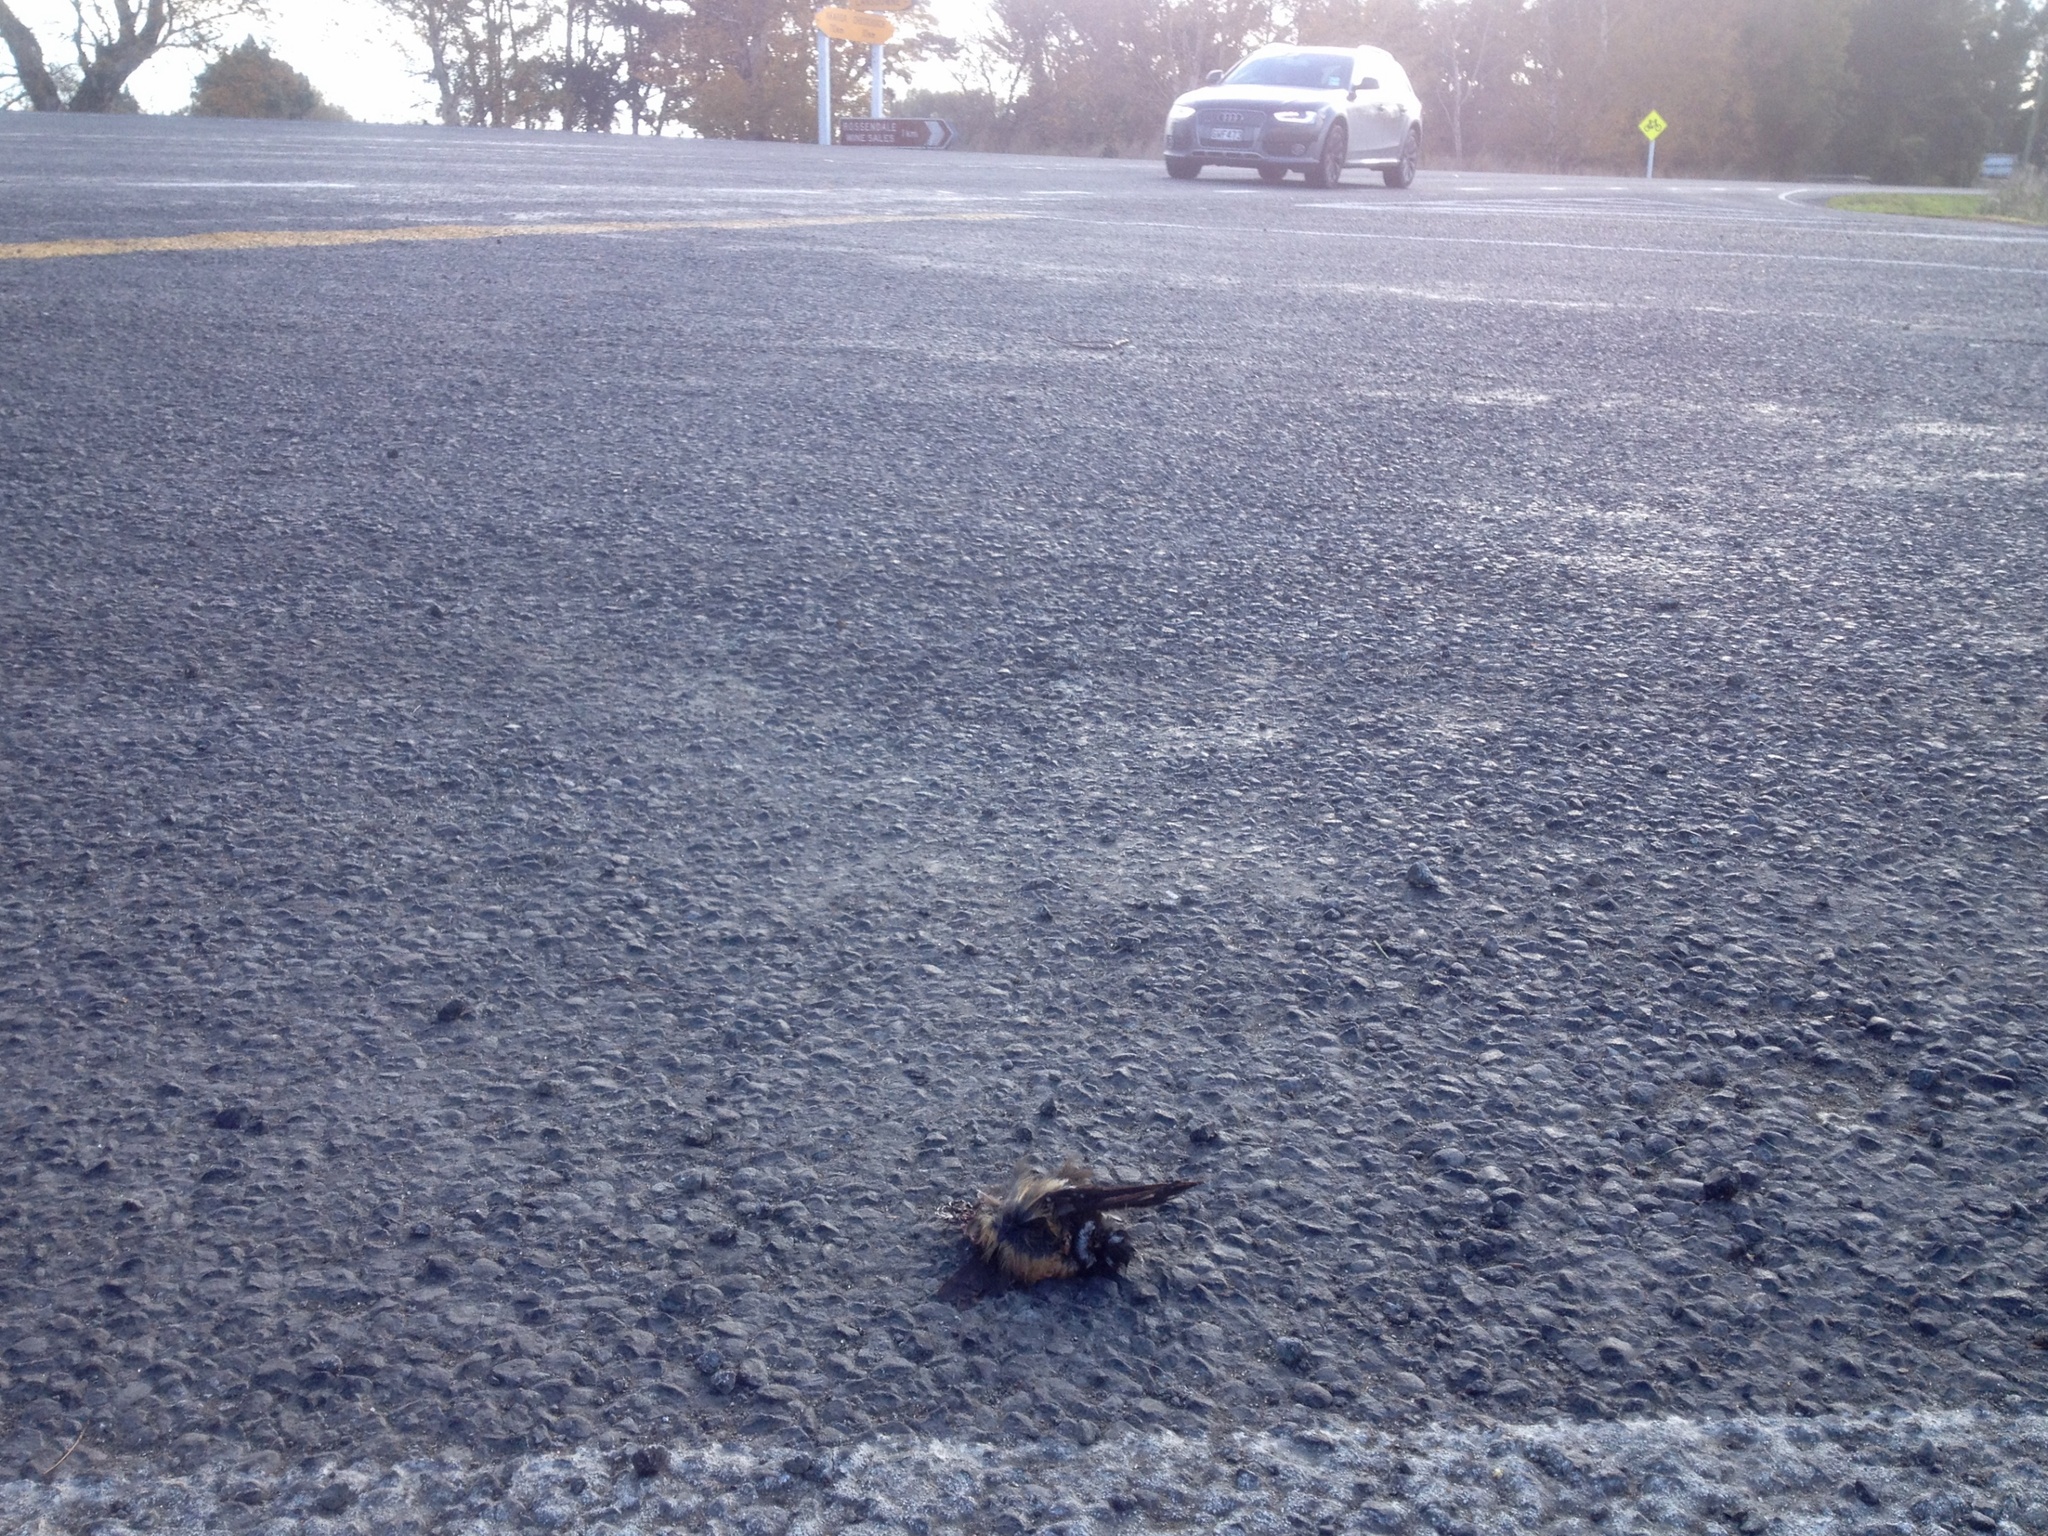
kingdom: Animalia
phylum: Chordata
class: Aves
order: Passeriformes
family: Rhipiduridae
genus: Rhipidura
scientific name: Rhipidura fuliginosa
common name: New zealand fantail
